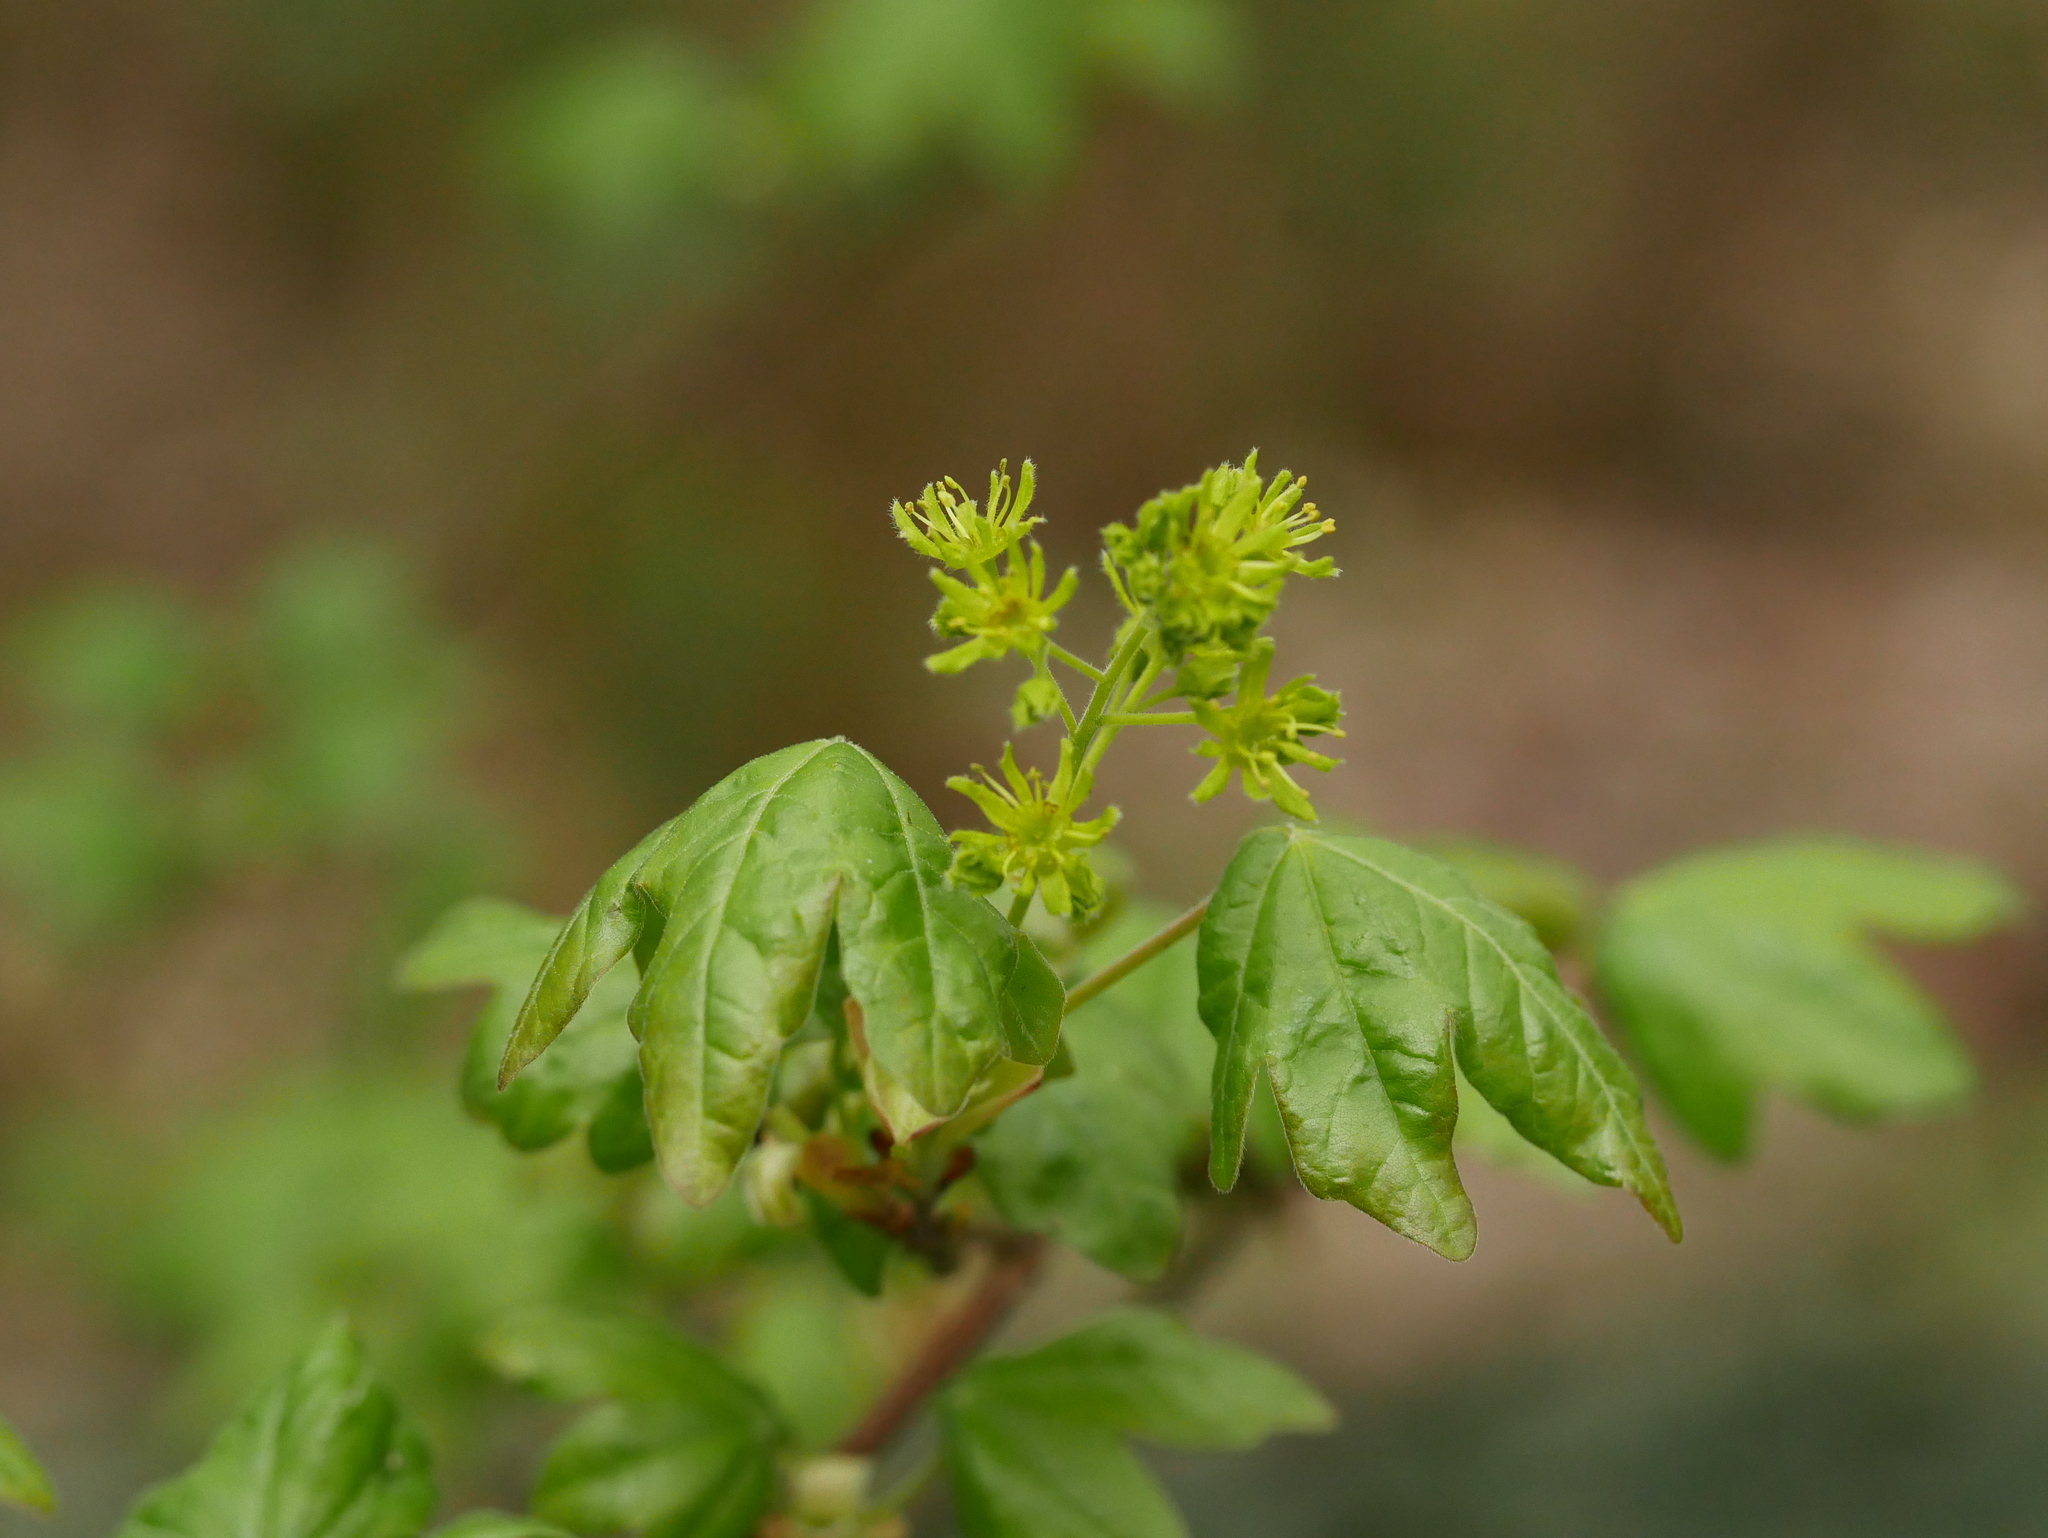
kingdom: Plantae
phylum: Tracheophyta
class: Magnoliopsida
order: Sapindales
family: Sapindaceae
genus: Acer
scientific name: Acer campestre
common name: Field maple
